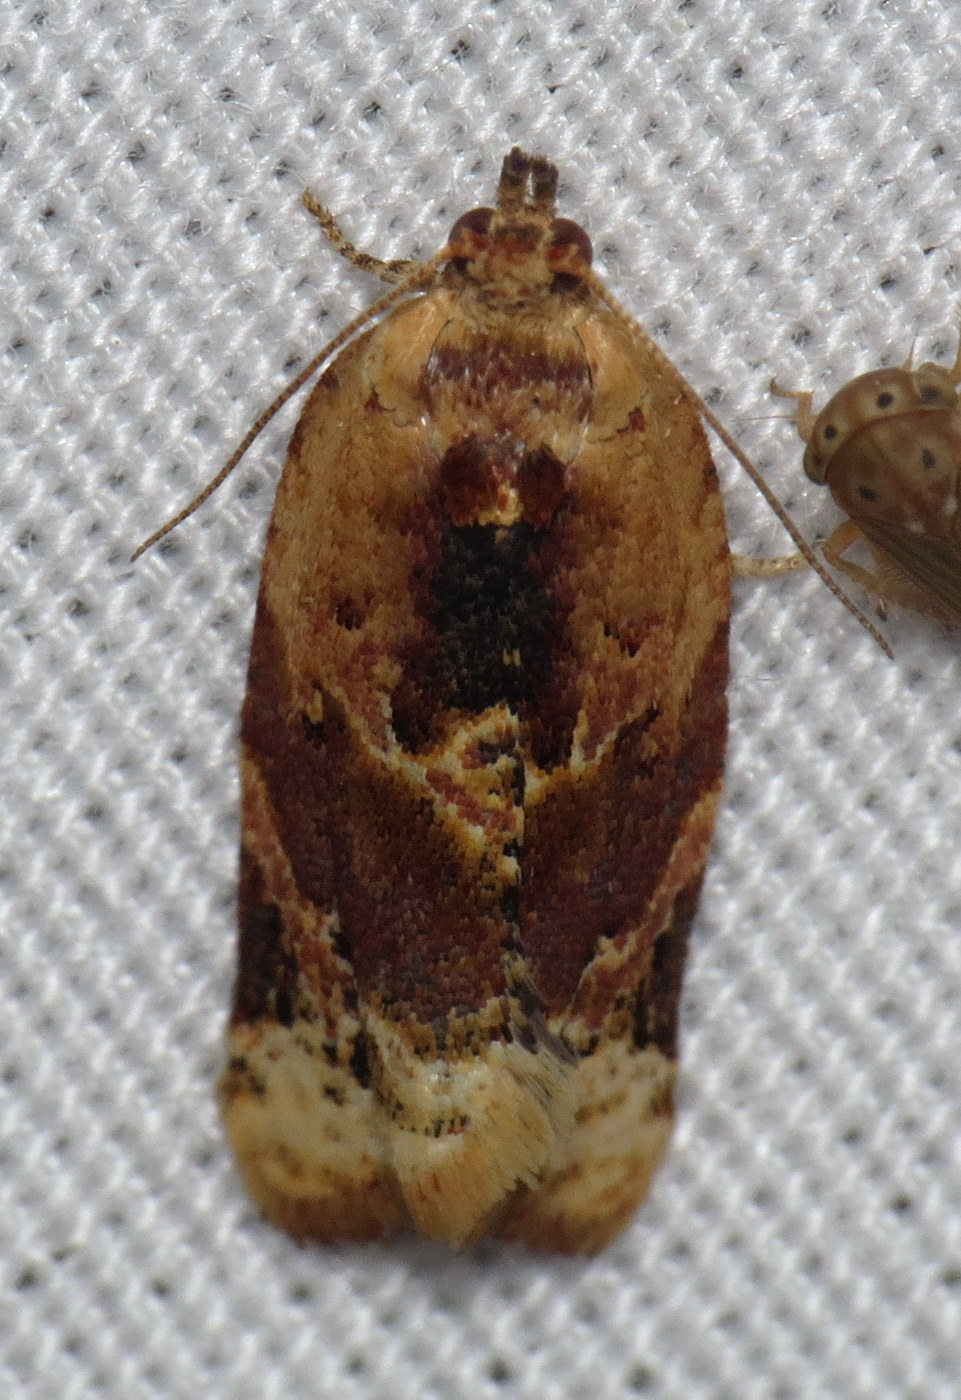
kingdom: Animalia
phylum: Arthropoda
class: Insecta
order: Lepidoptera
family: Tortricidae
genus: Argyrotaenia
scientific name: Argyrotaenia velutinana
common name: Red-banded leafroller moth
